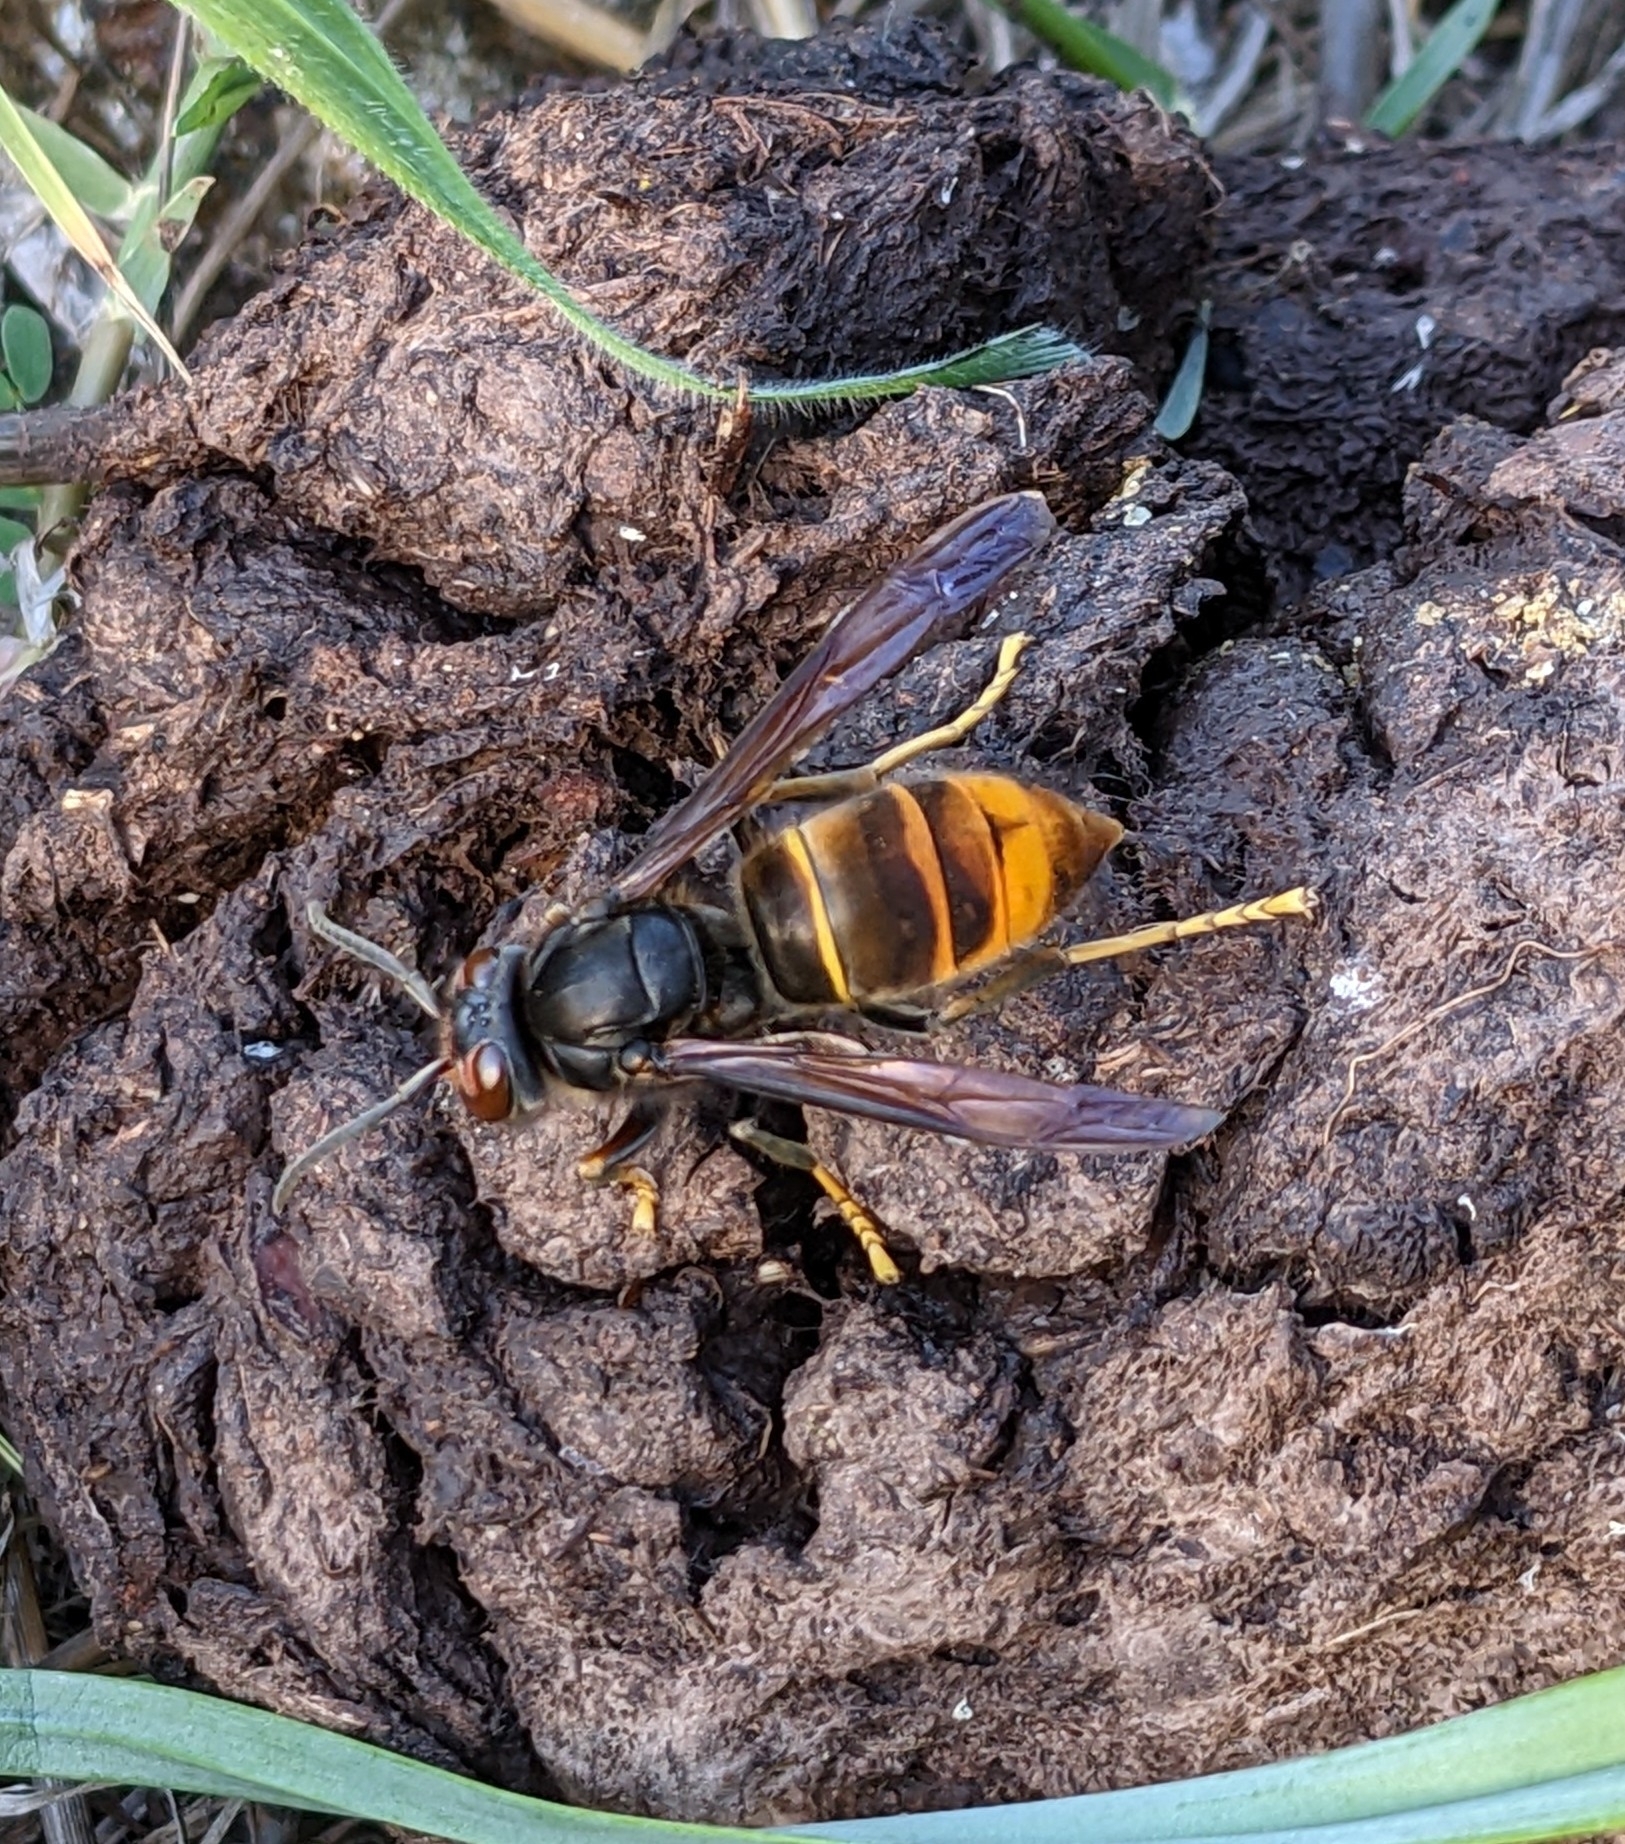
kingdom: Animalia
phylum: Arthropoda
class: Insecta
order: Hymenoptera
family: Vespidae
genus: Vespa
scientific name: Vespa velutina
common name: Asian hornet
